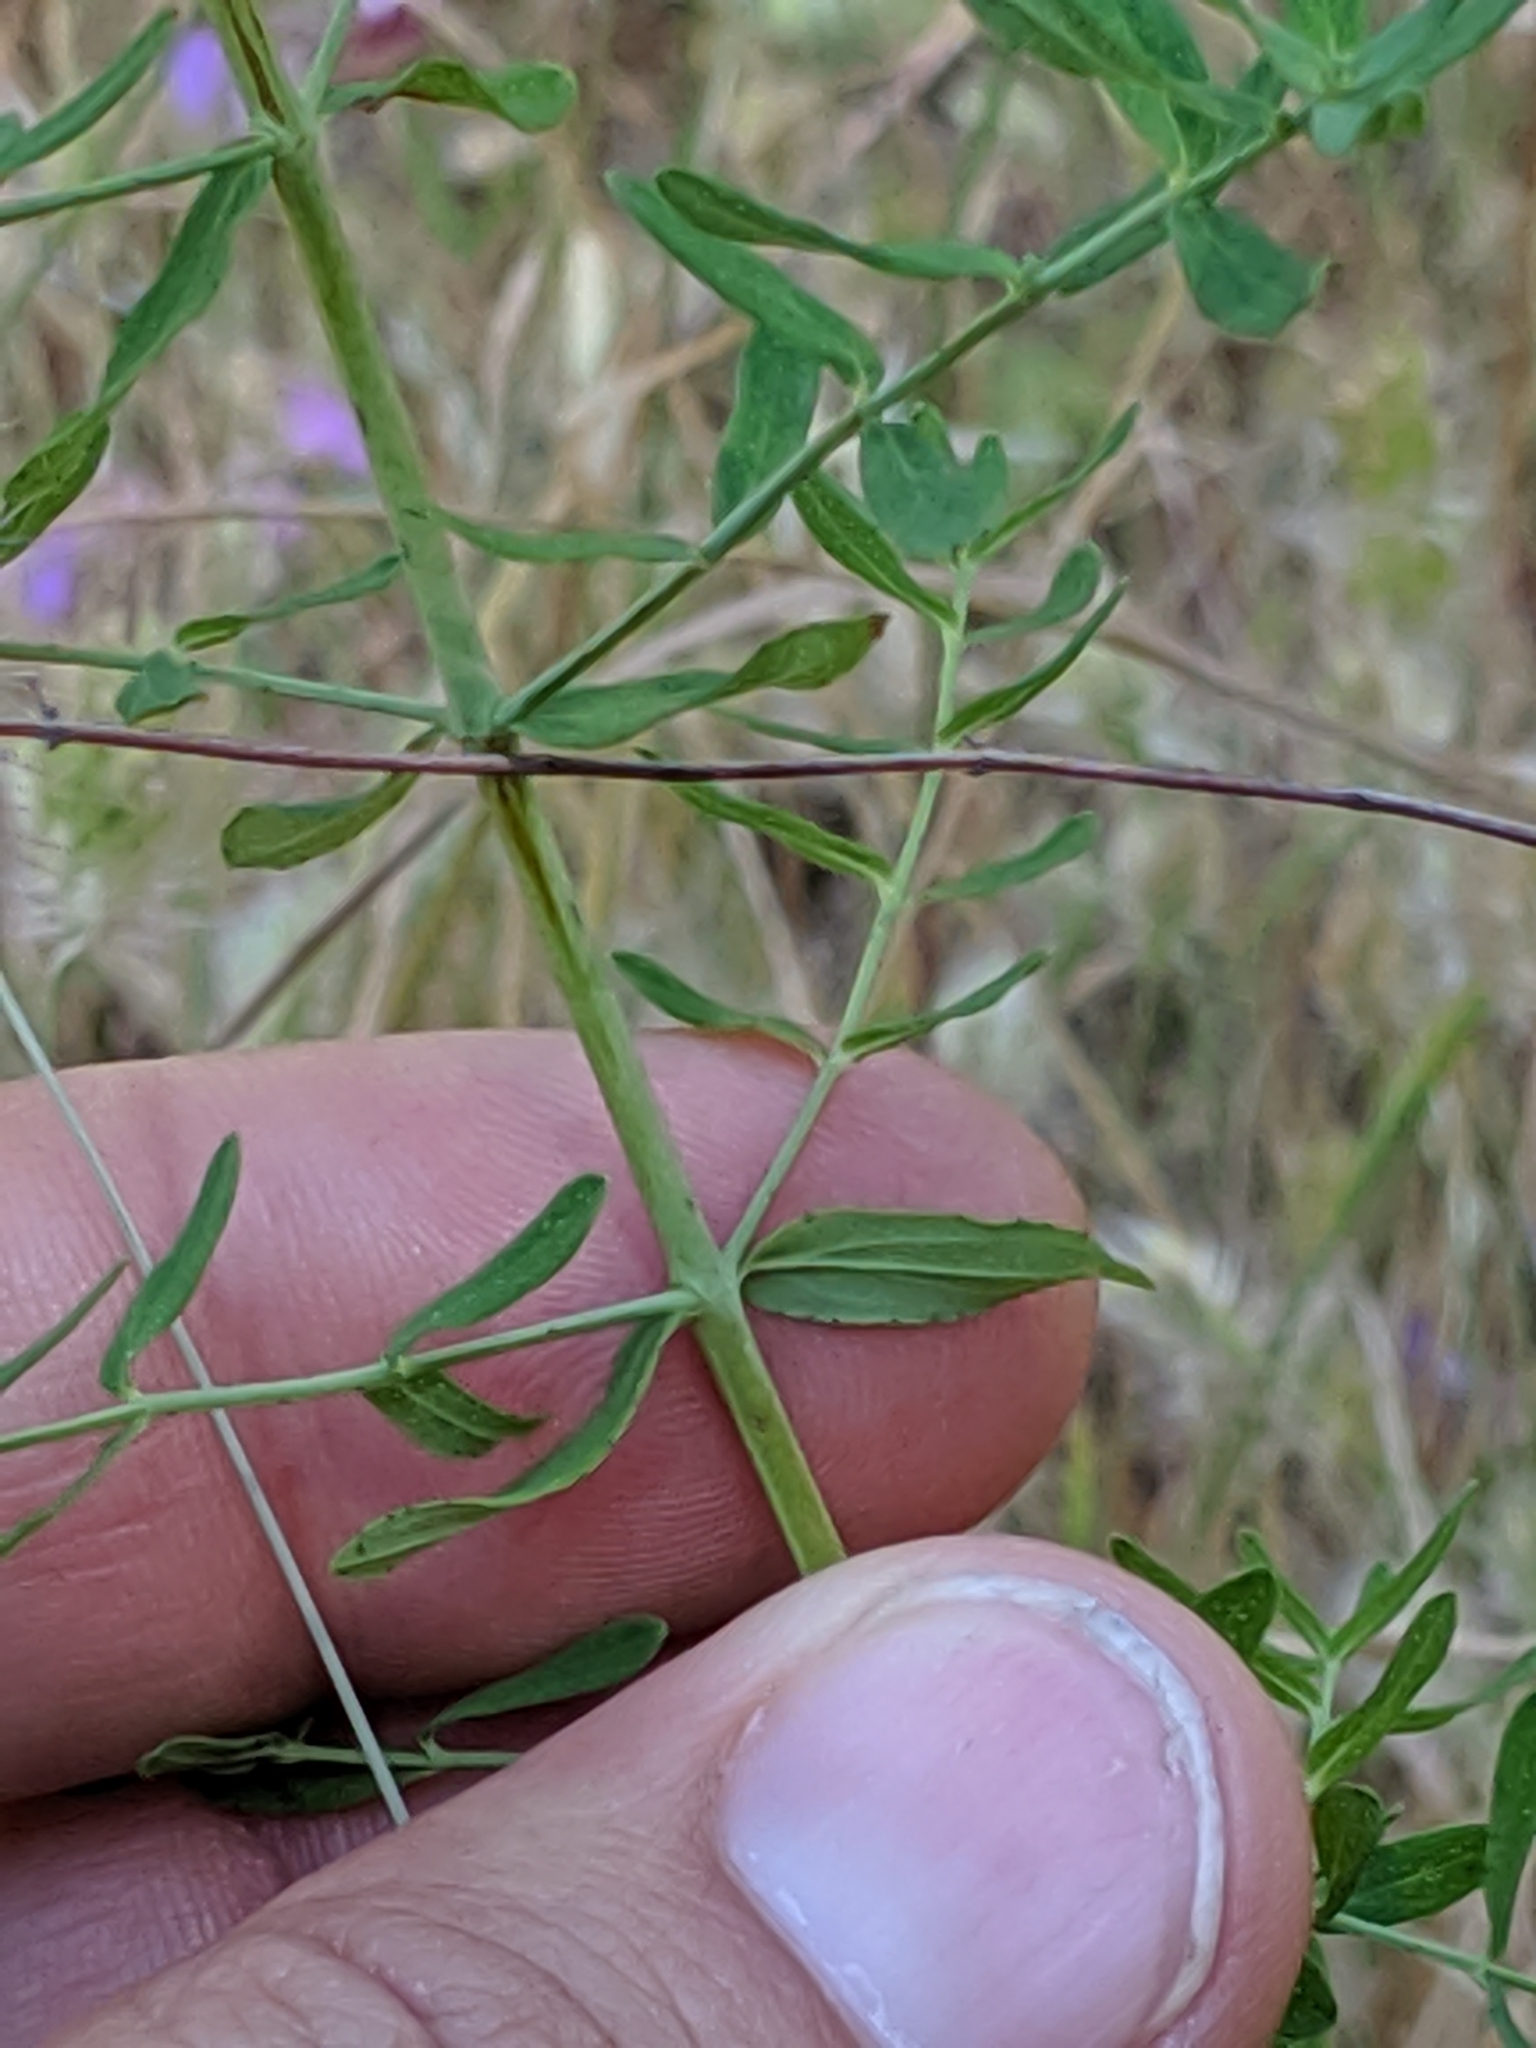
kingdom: Plantae
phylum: Tracheophyta
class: Magnoliopsida
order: Malpighiales
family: Hypericaceae
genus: Hypericum
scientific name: Hypericum perforatum
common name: Common st. johnswort
